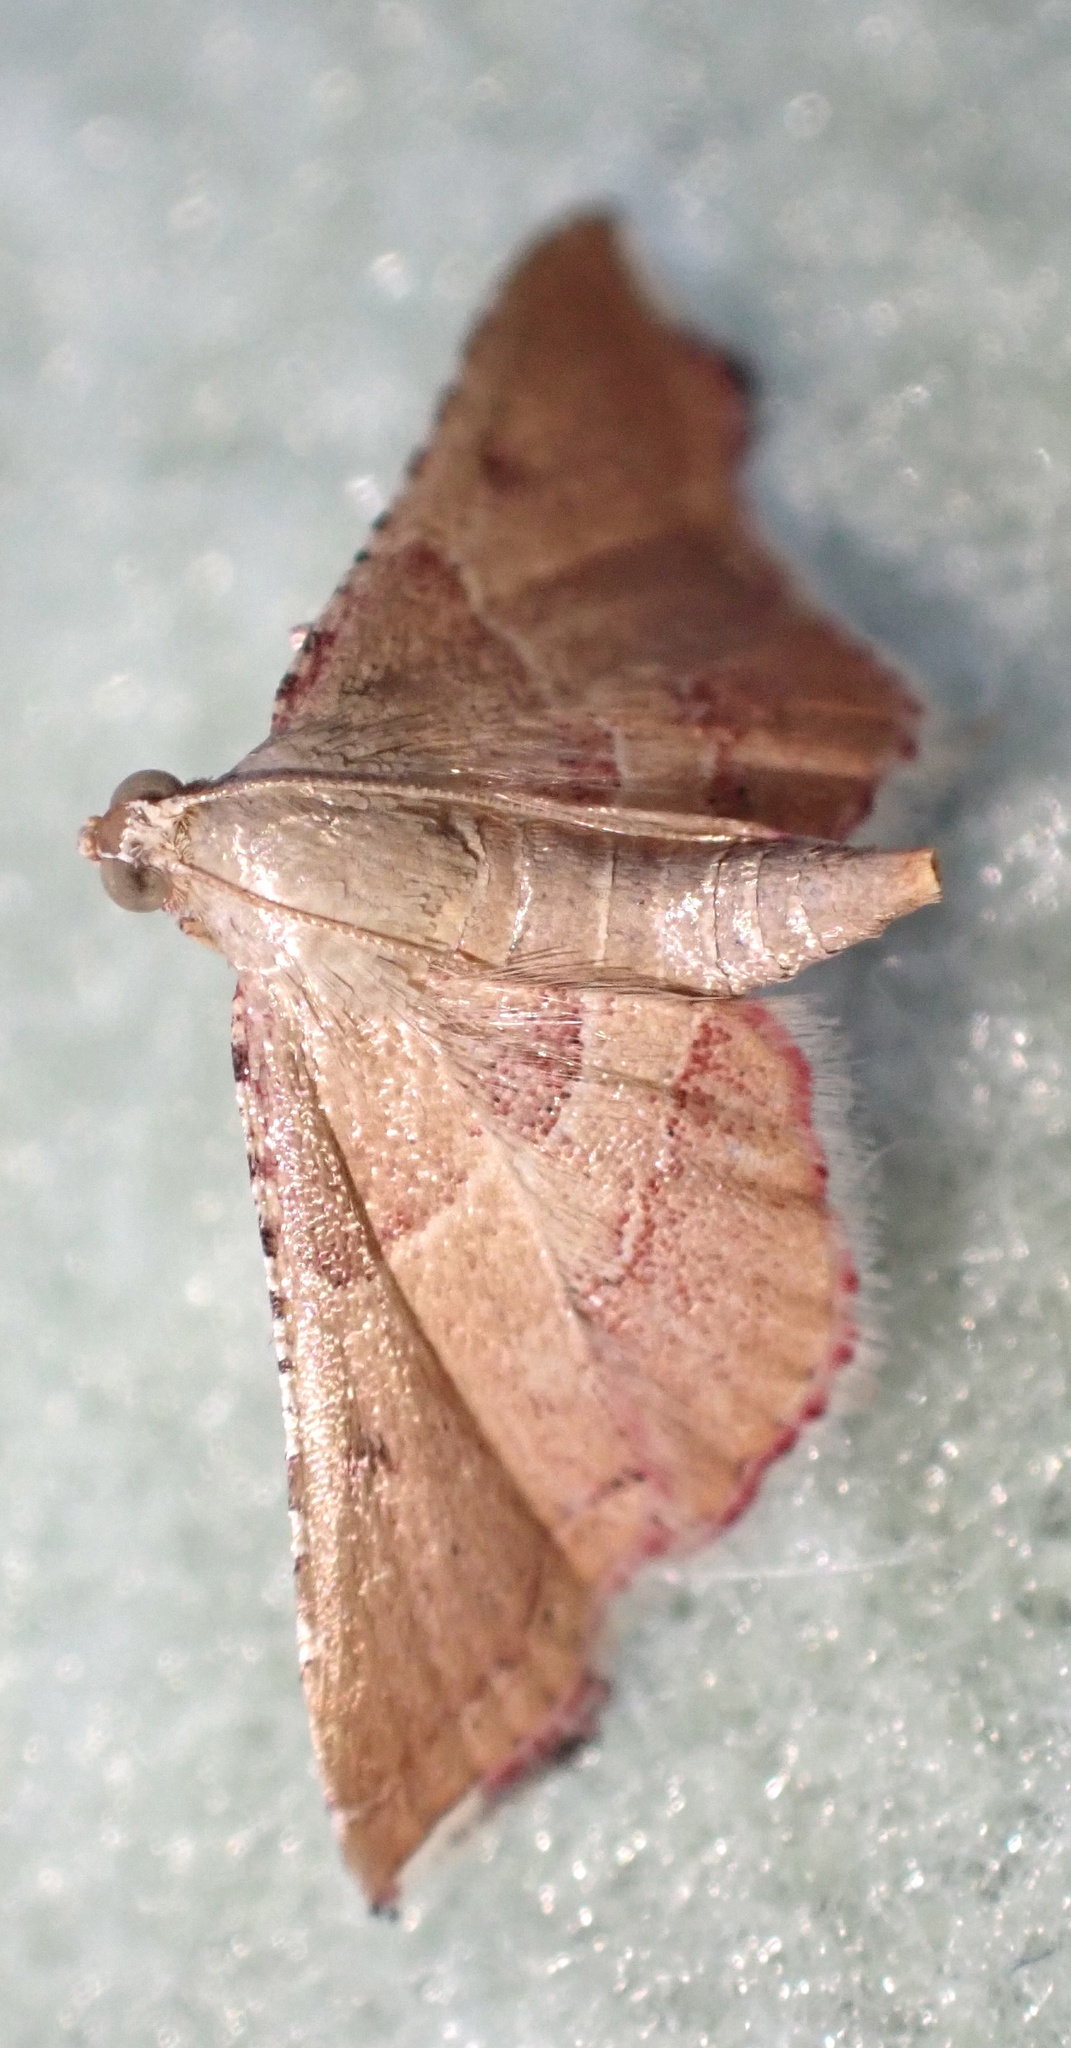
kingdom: Animalia
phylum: Arthropoda
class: Insecta
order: Lepidoptera
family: Pyralidae
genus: Endotricha
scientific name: Endotricha flammealis
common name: Rosy tabby
